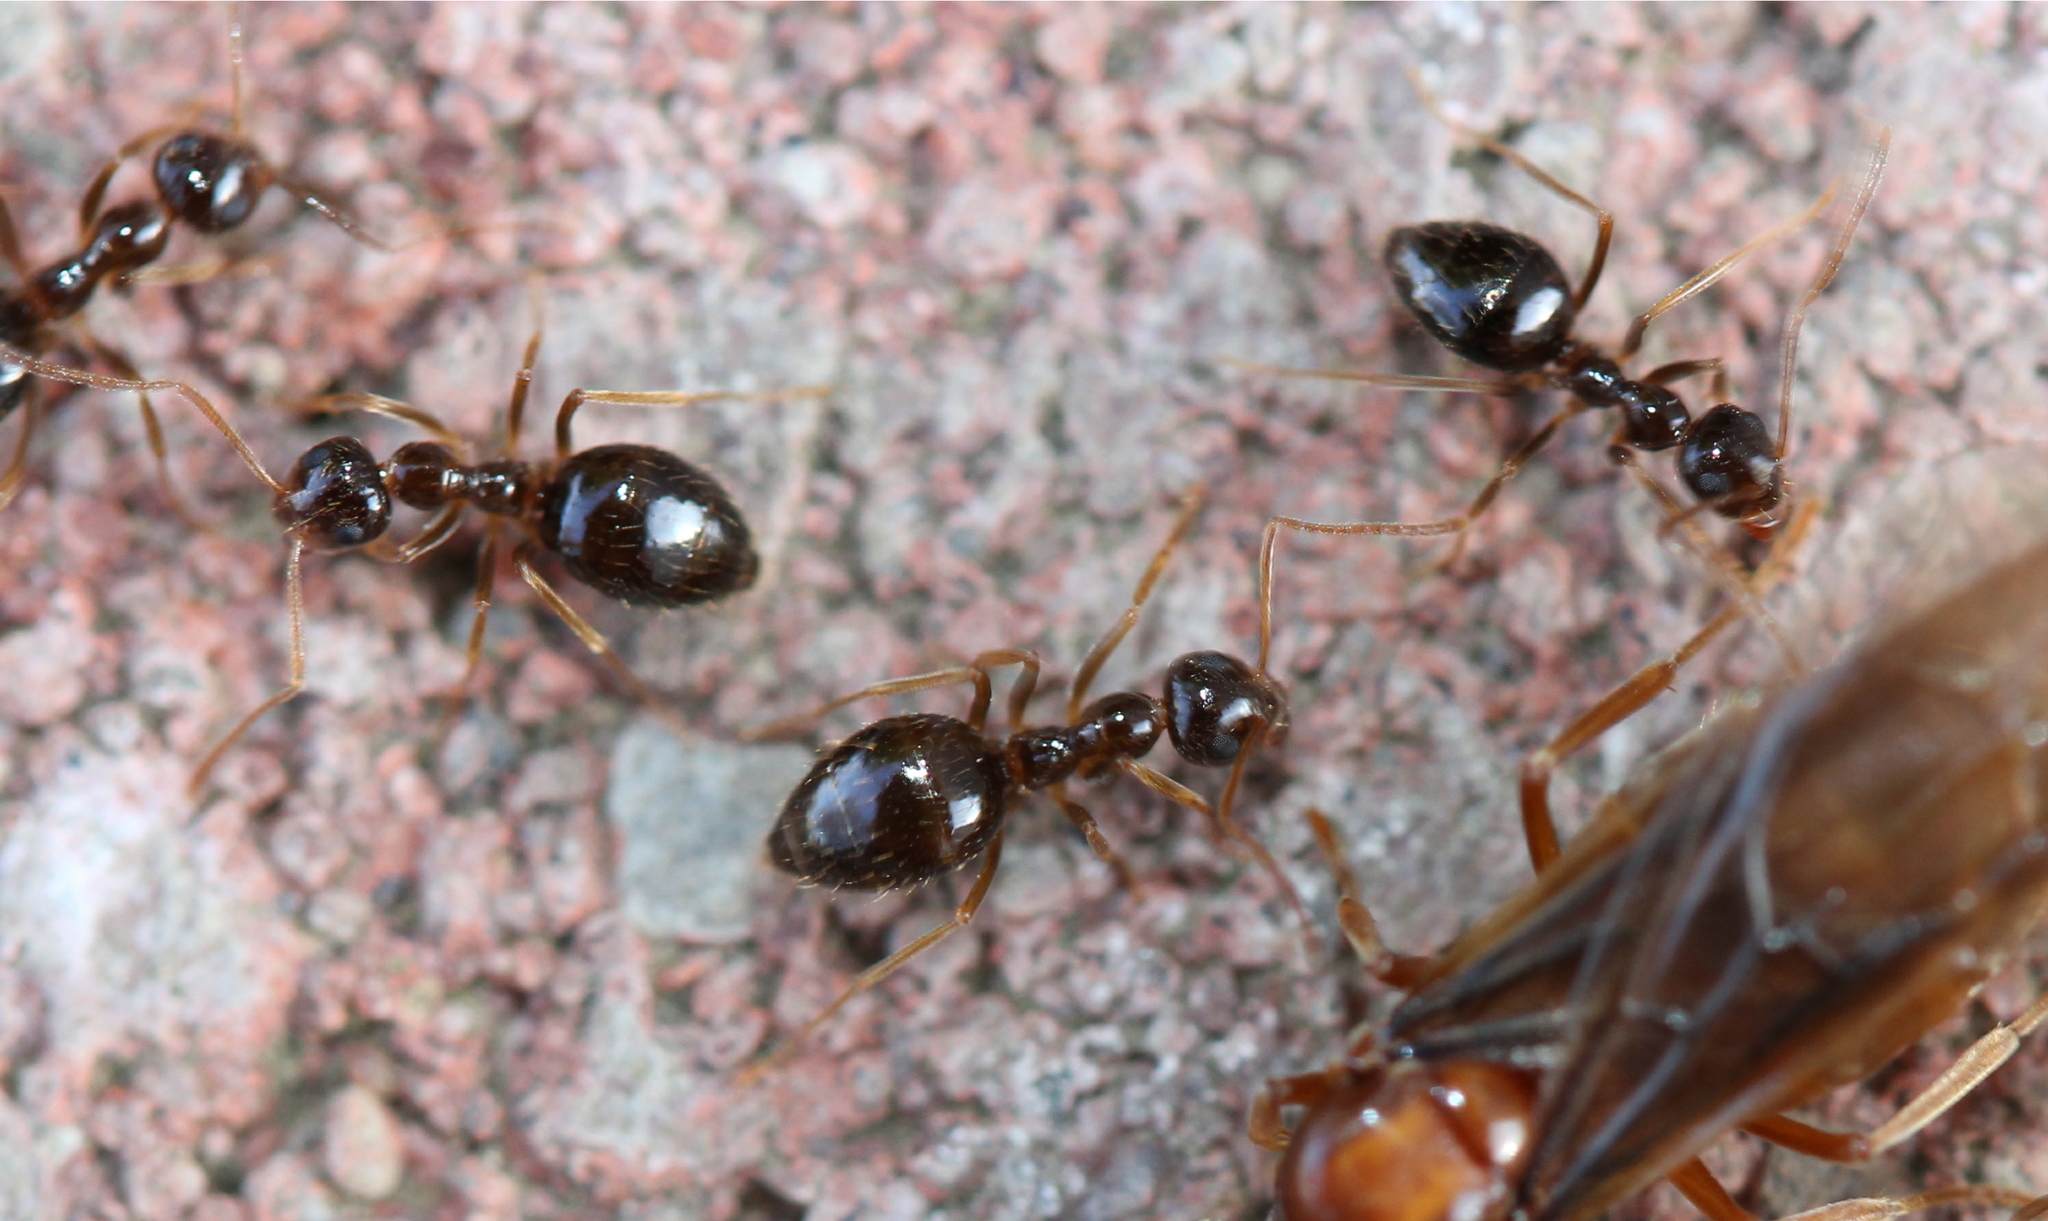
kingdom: Animalia
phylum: Arthropoda
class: Insecta
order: Hymenoptera
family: Formicidae
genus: Prenolepis
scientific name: Prenolepis imparis
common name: Small honey ant
